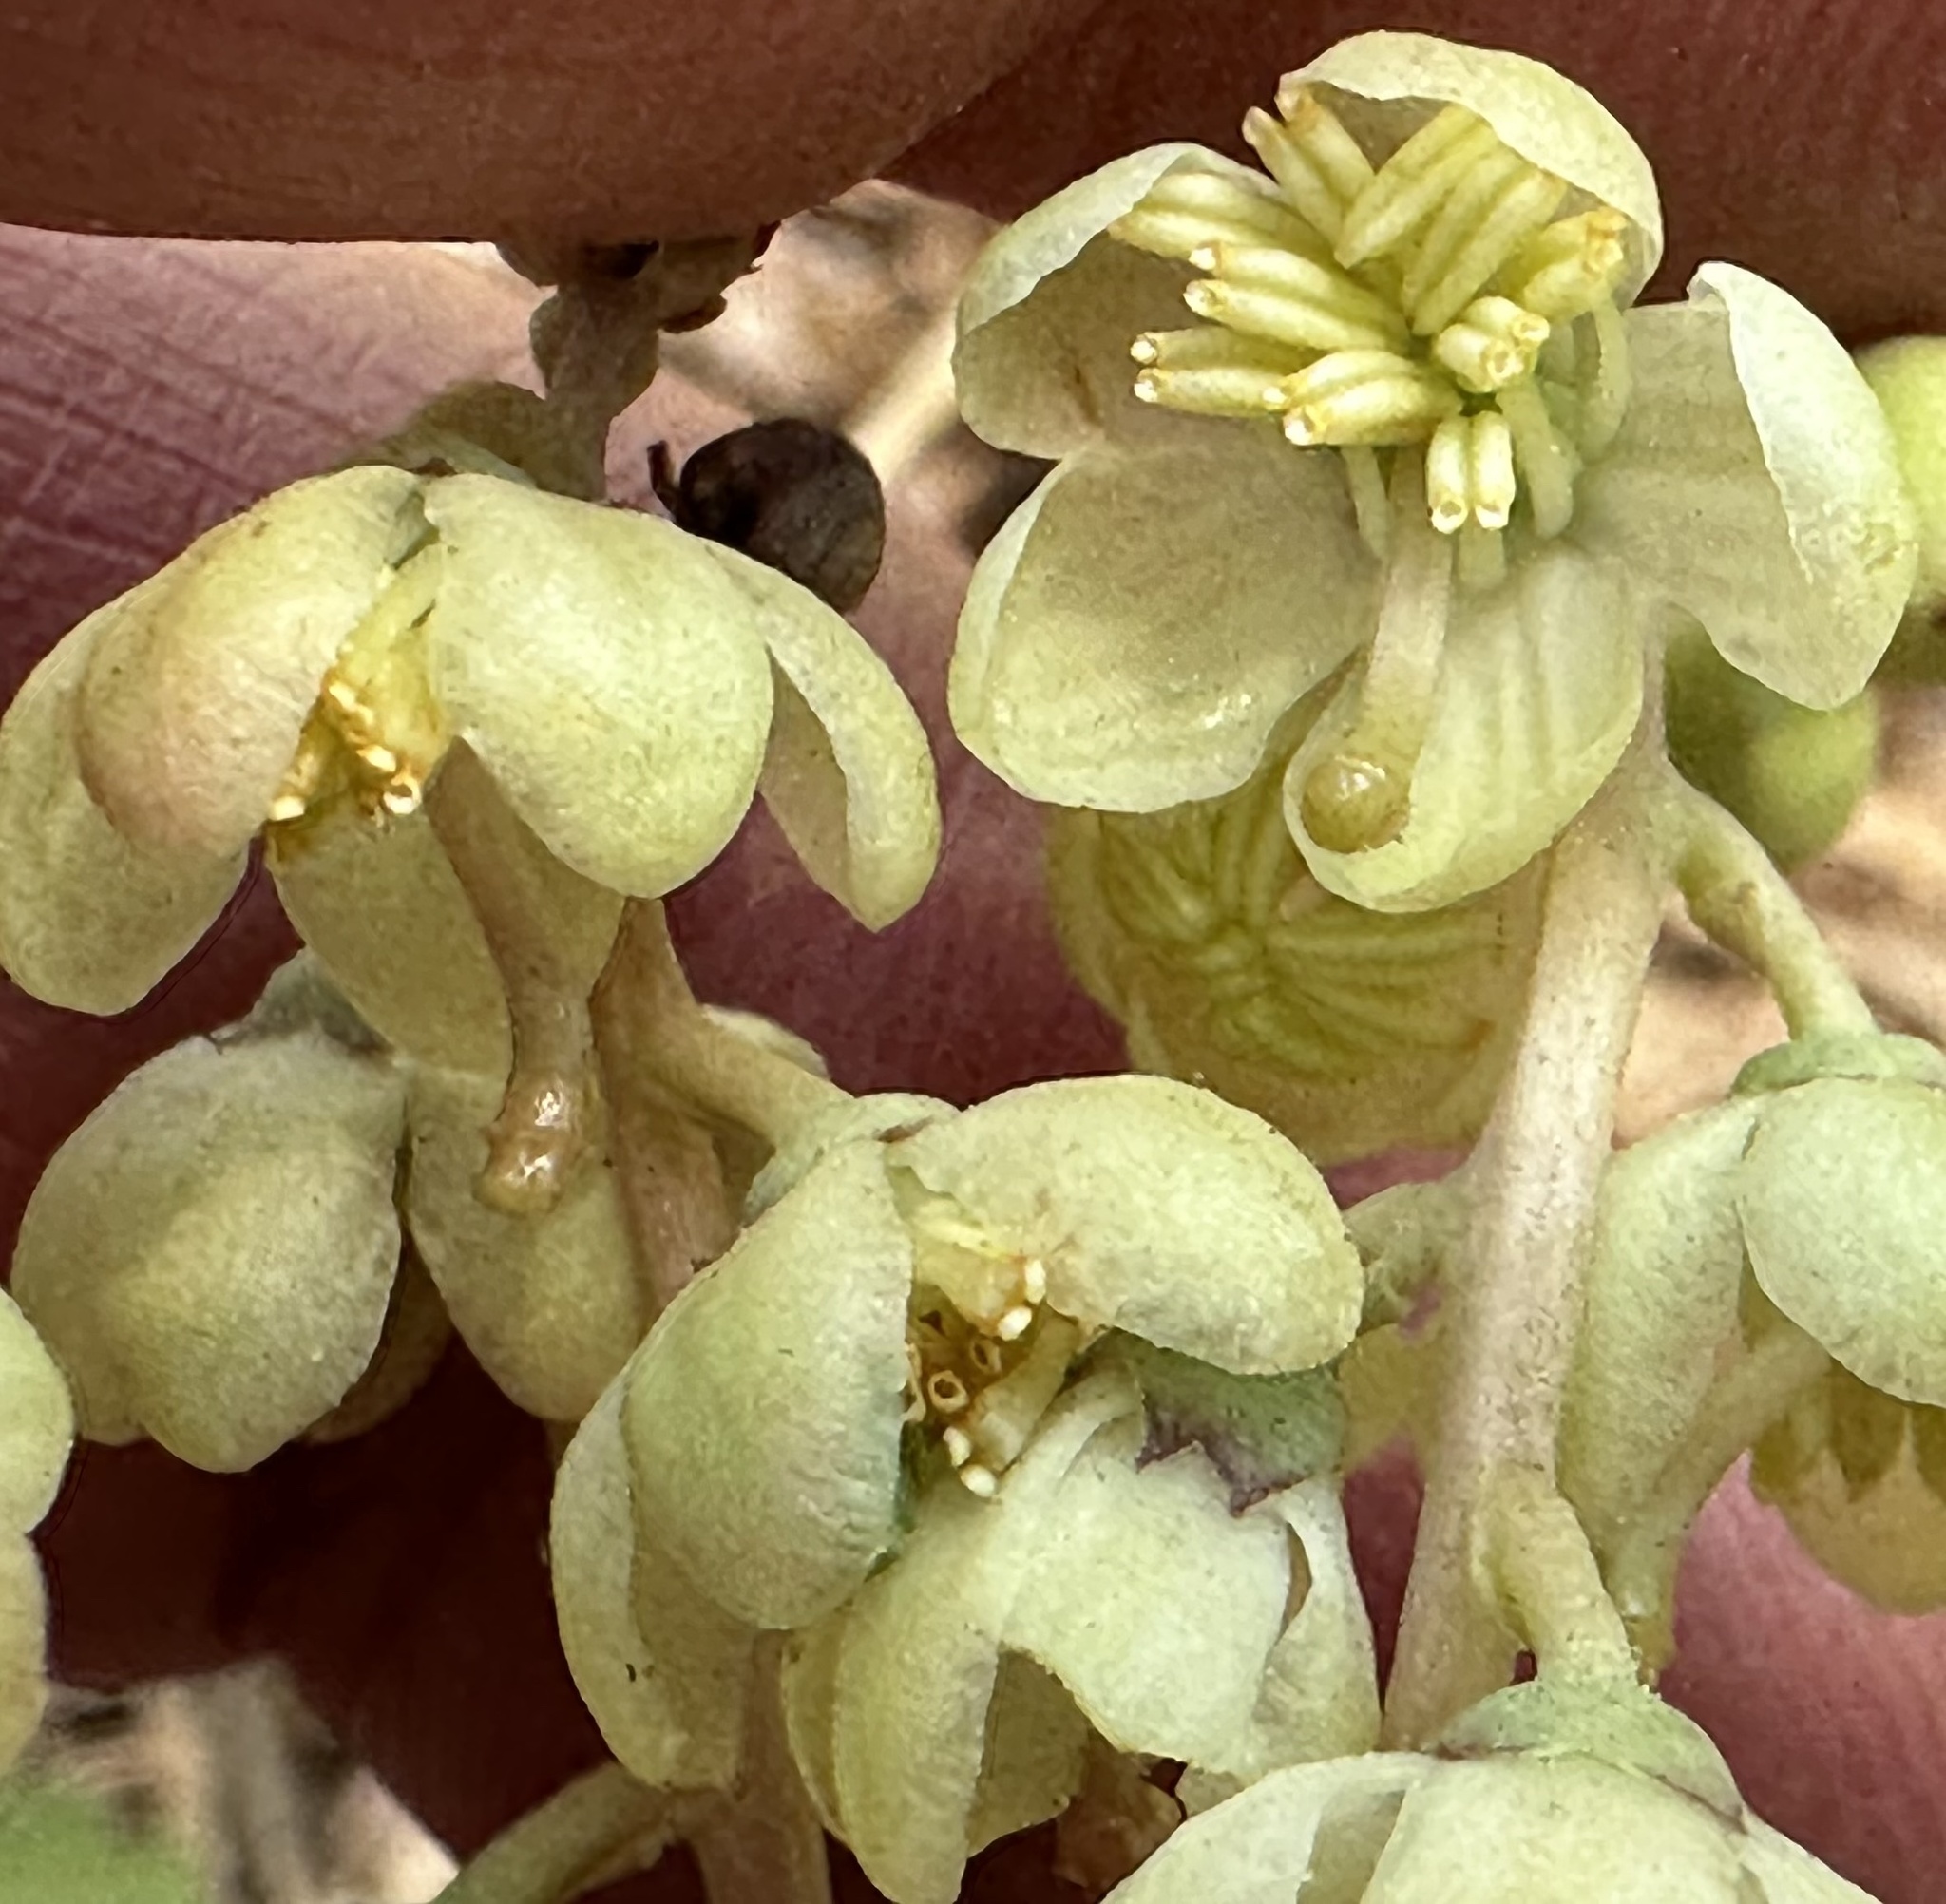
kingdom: Plantae
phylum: Tracheophyta
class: Magnoliopsida
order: Ericales
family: Ericaceae
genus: Pyrola
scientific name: Pyrola dentata
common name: Tooth-leaved wintergreen
